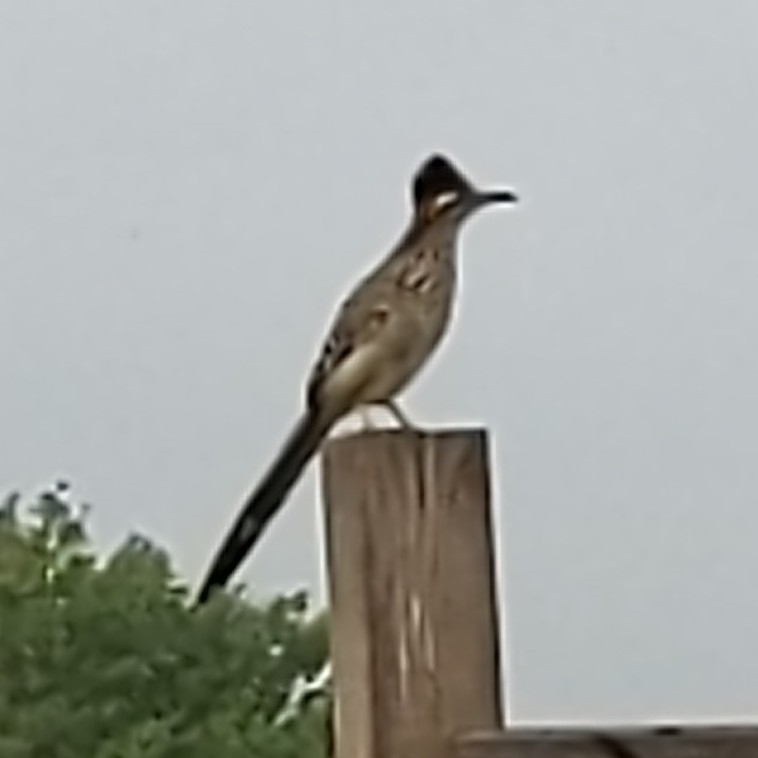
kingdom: Animalia
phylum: Chordata
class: Aves
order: Cuculiformes
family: Cuculidae
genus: Geococcyx
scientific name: Geococcyx californianus
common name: Greater roadrunner
